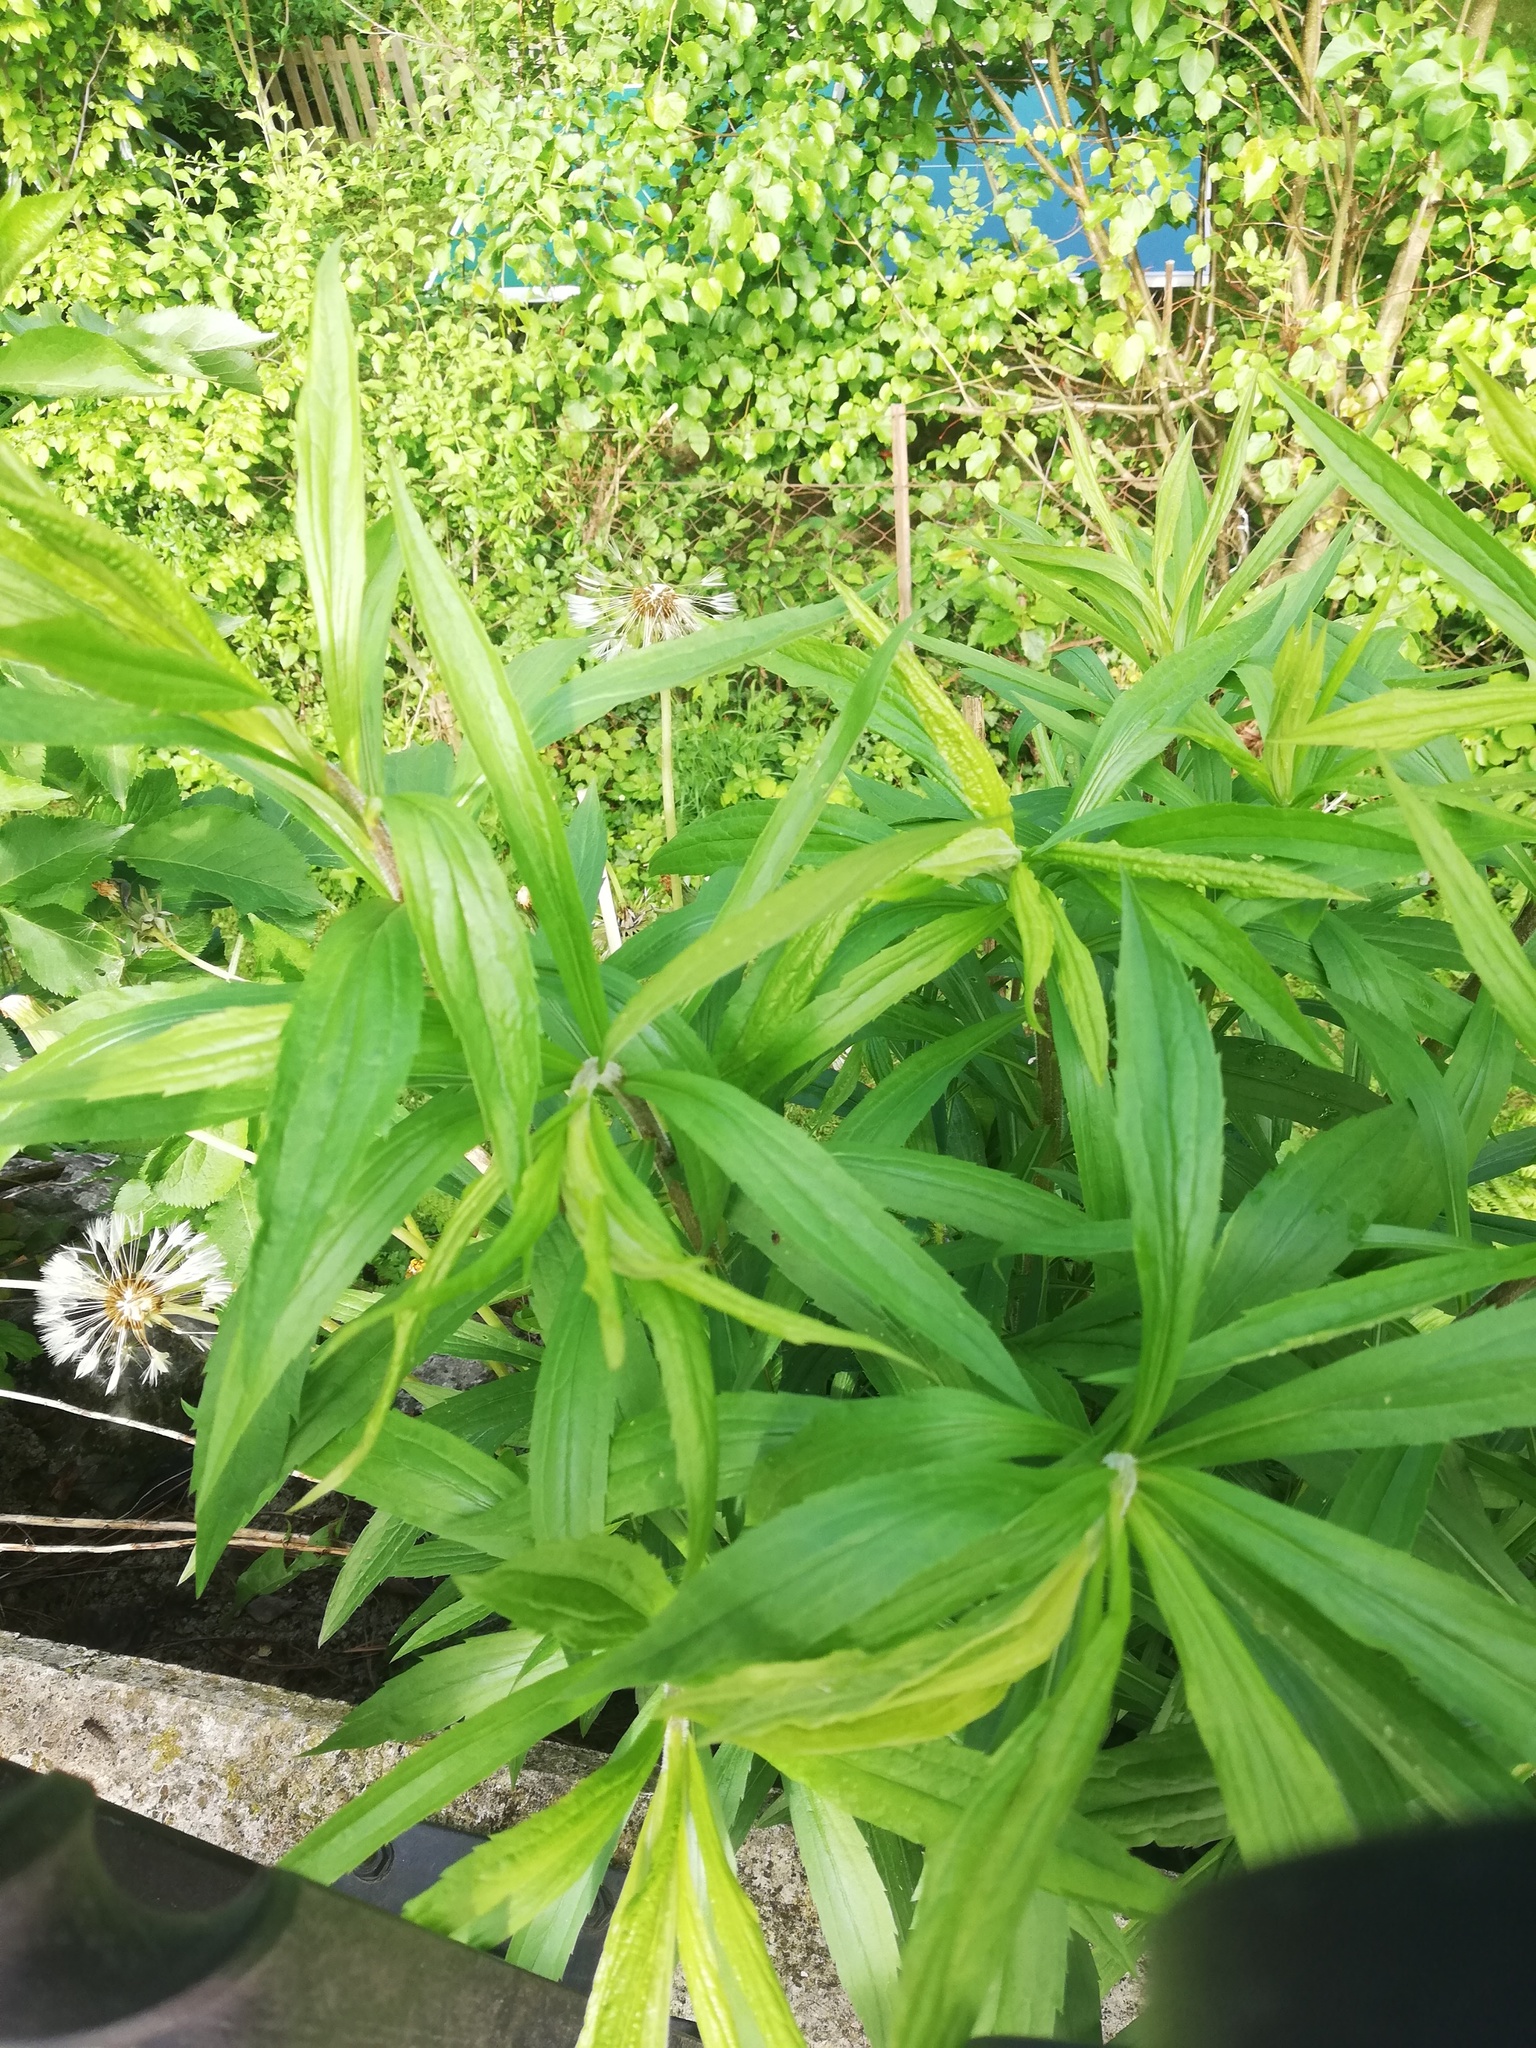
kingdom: Plantae
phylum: Tracheophyta
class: Magnoliopsida
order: Asterales
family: Asteraceae
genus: Solidago
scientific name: Solidago canadensis
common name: Canada goldenrod
